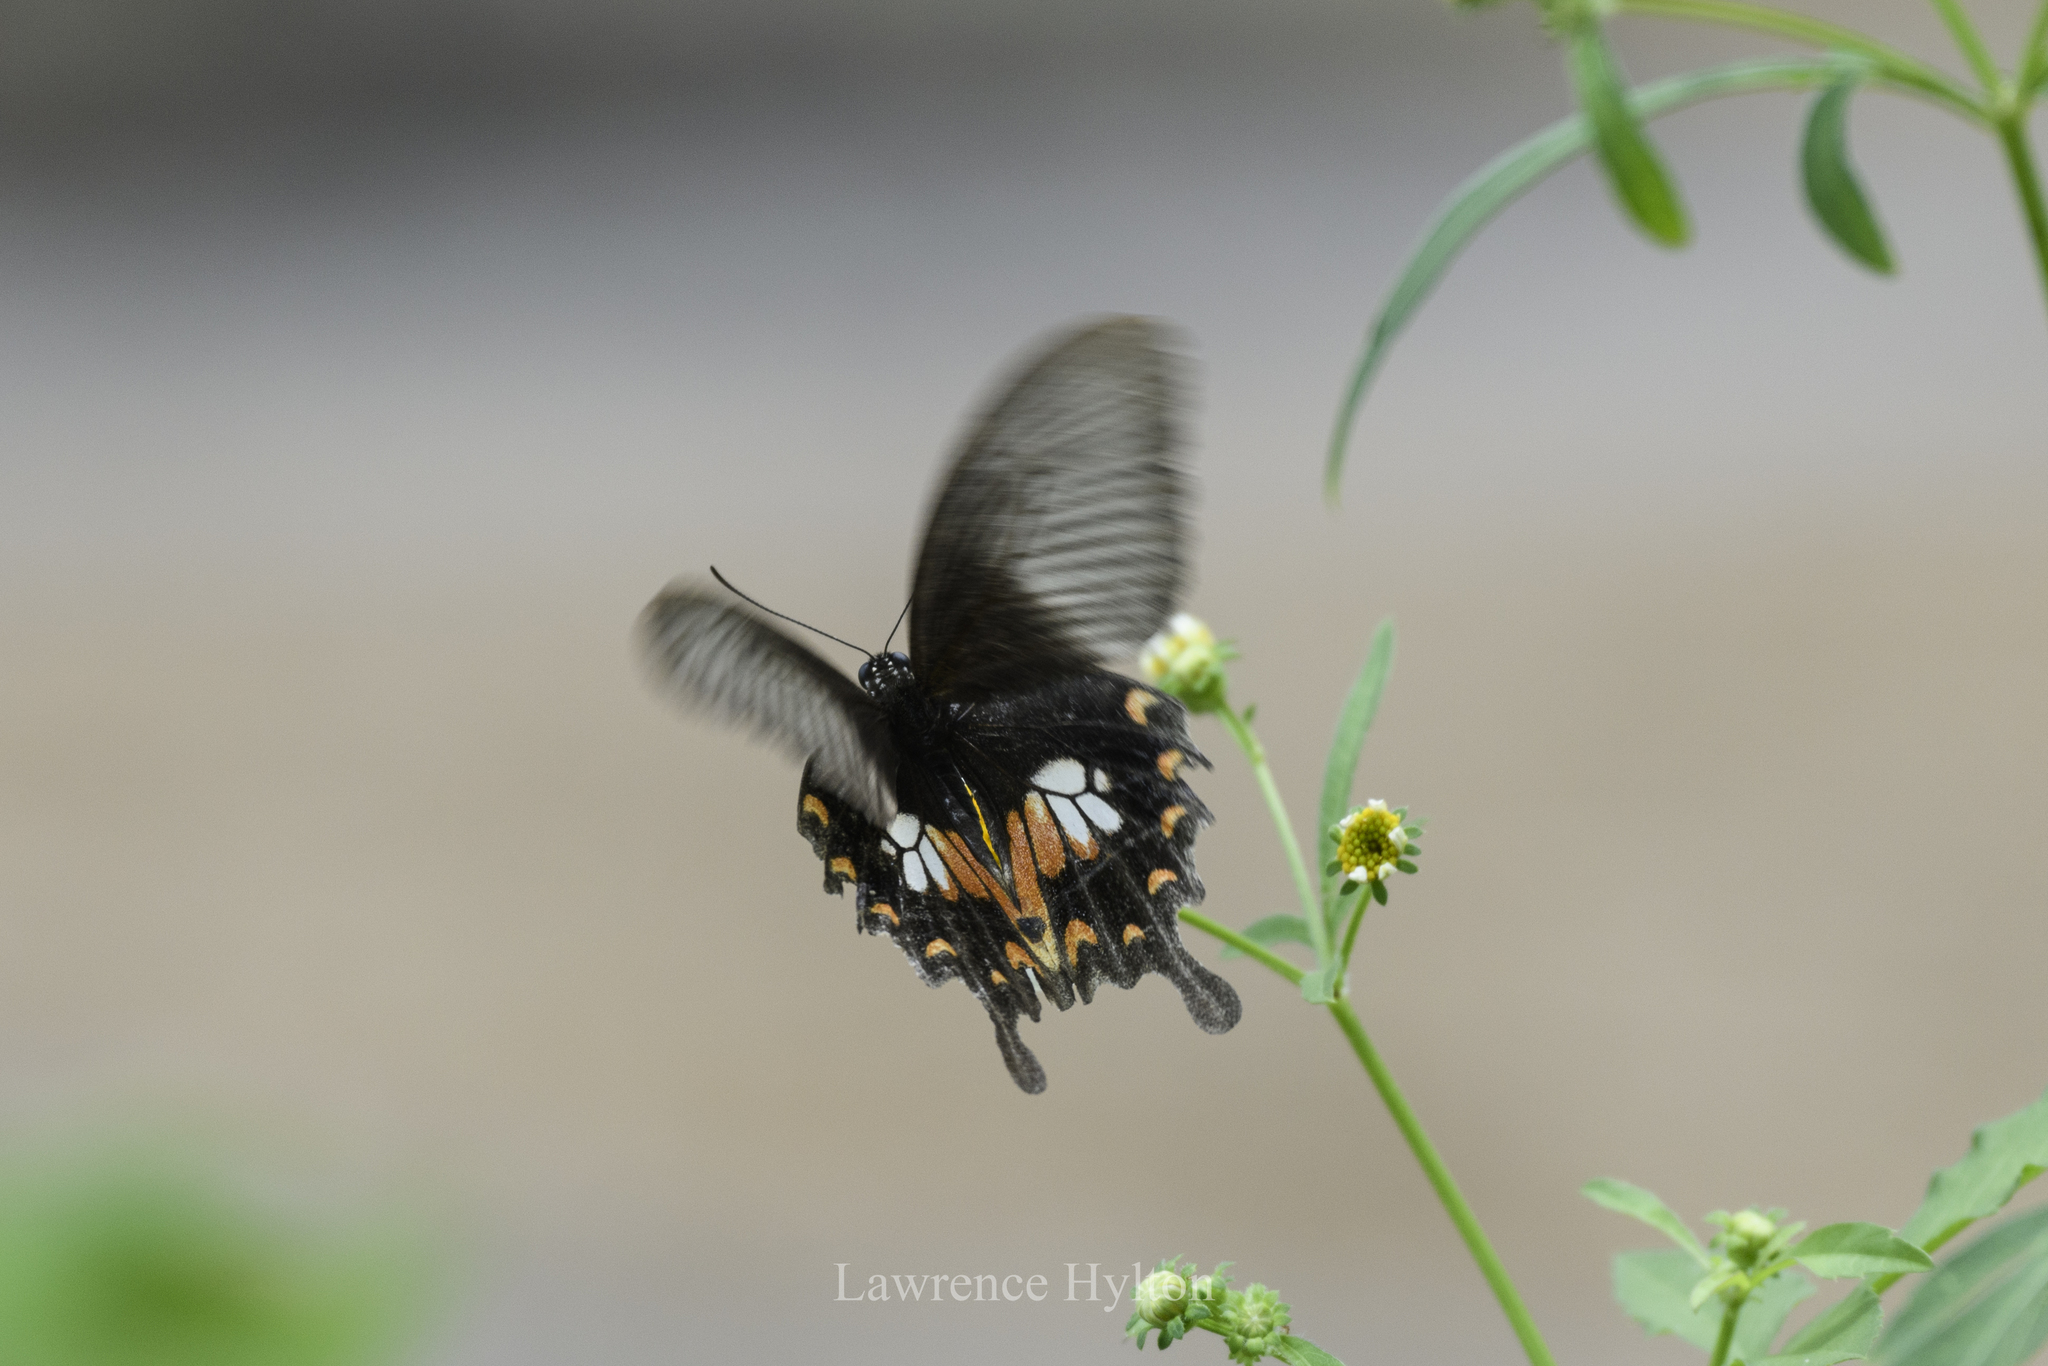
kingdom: Animalia
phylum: Arthropoda
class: Insecta
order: Lepidoptera
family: Papilionidae
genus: Papilio
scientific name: Papilio polytes
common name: Common mormon
